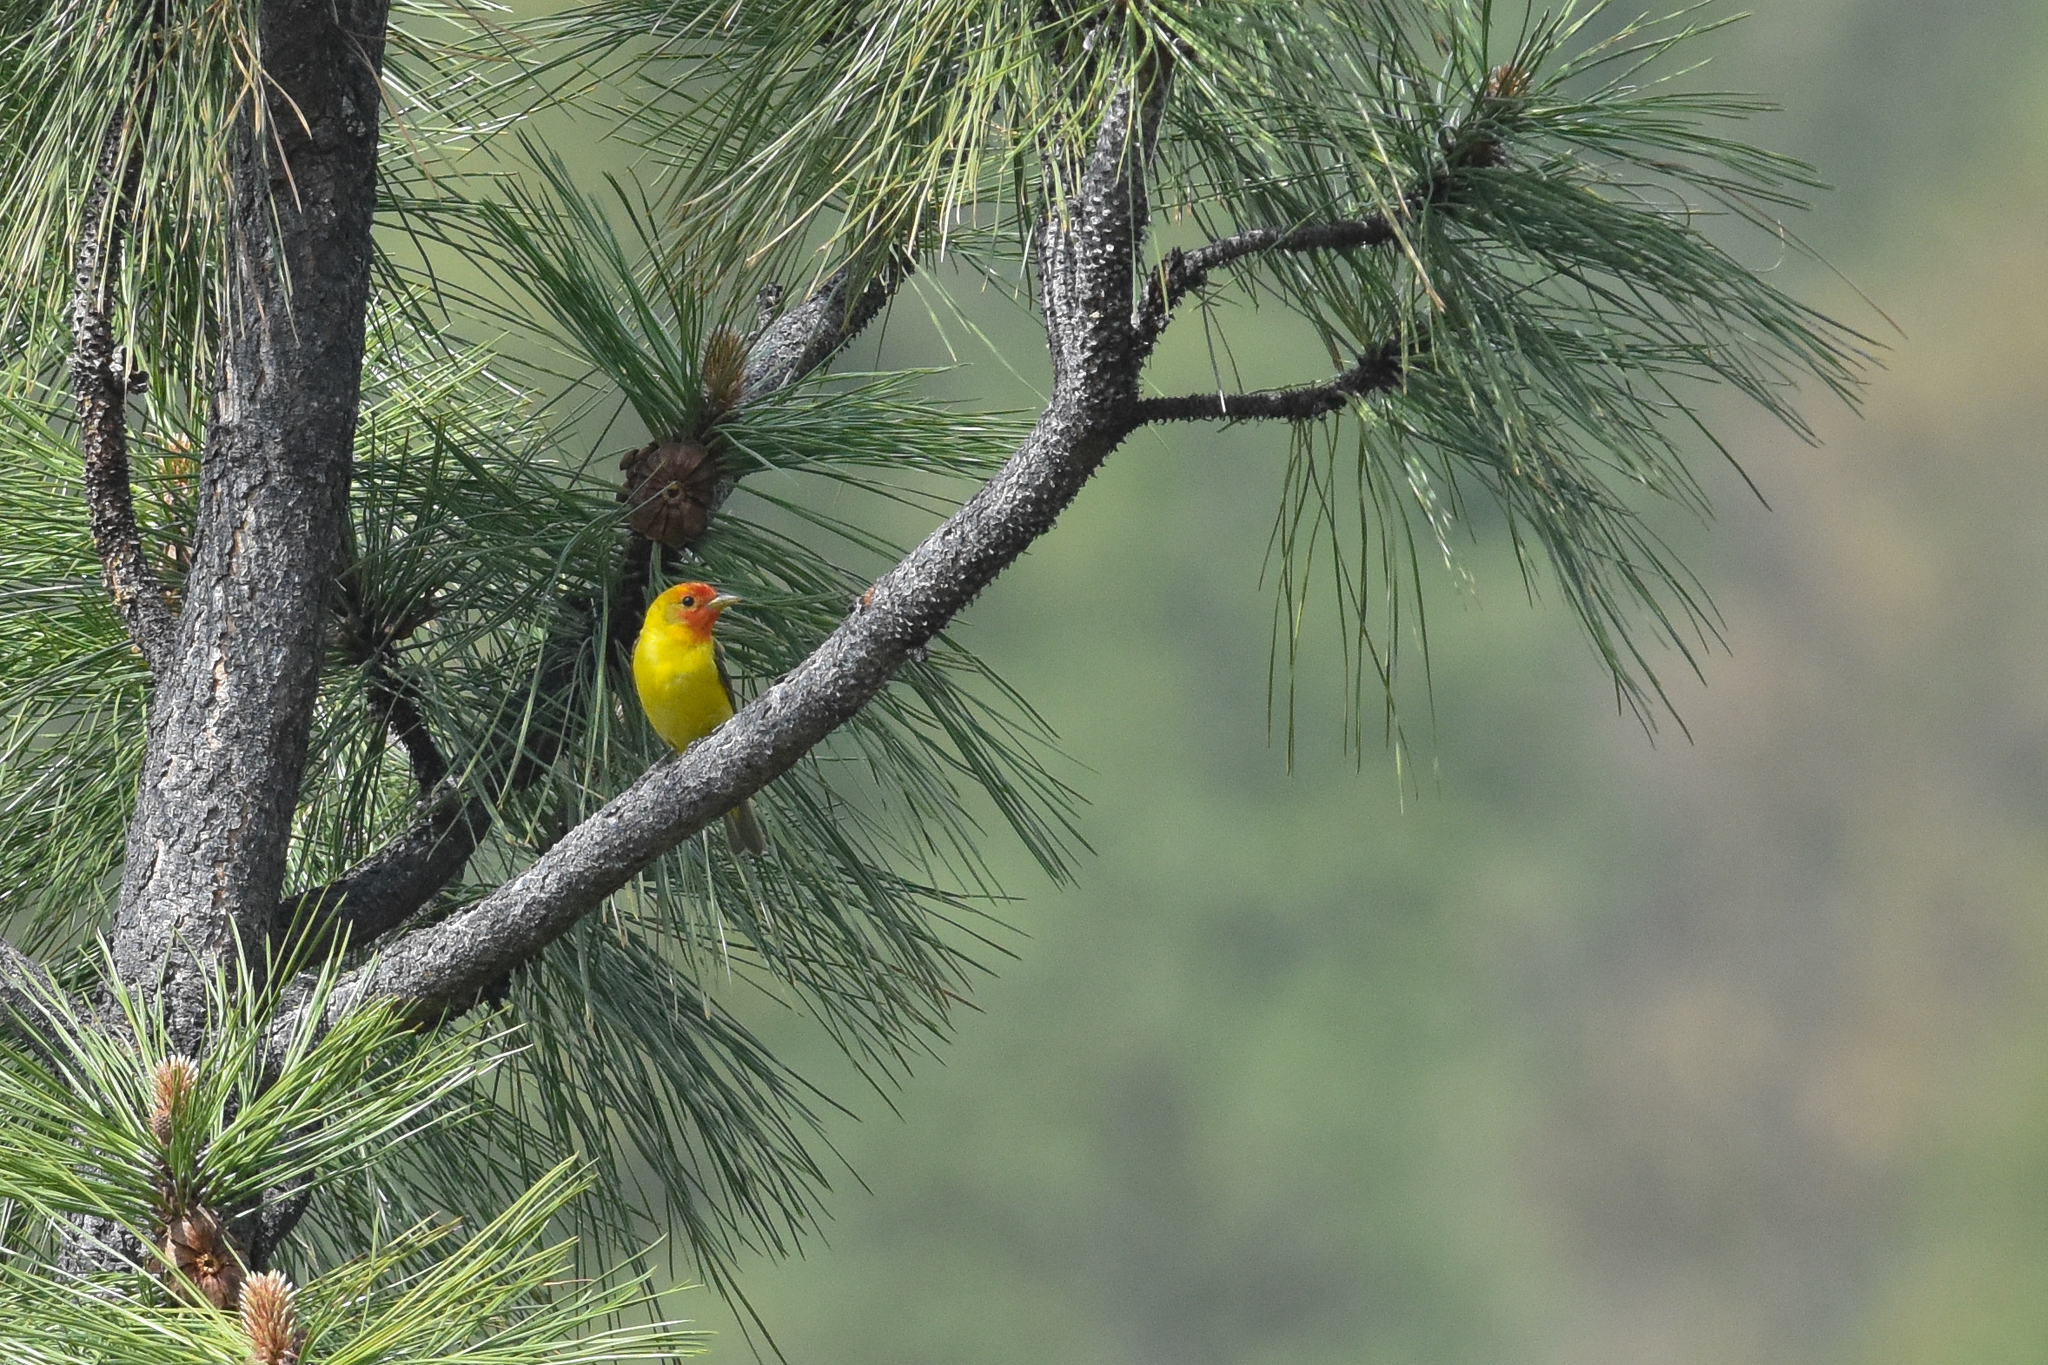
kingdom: Animalia
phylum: Chordata
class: Aves
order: Passeriformes
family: Cardinalidae
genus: Piranga
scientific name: Piranga ludoviciana
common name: Western tanager
